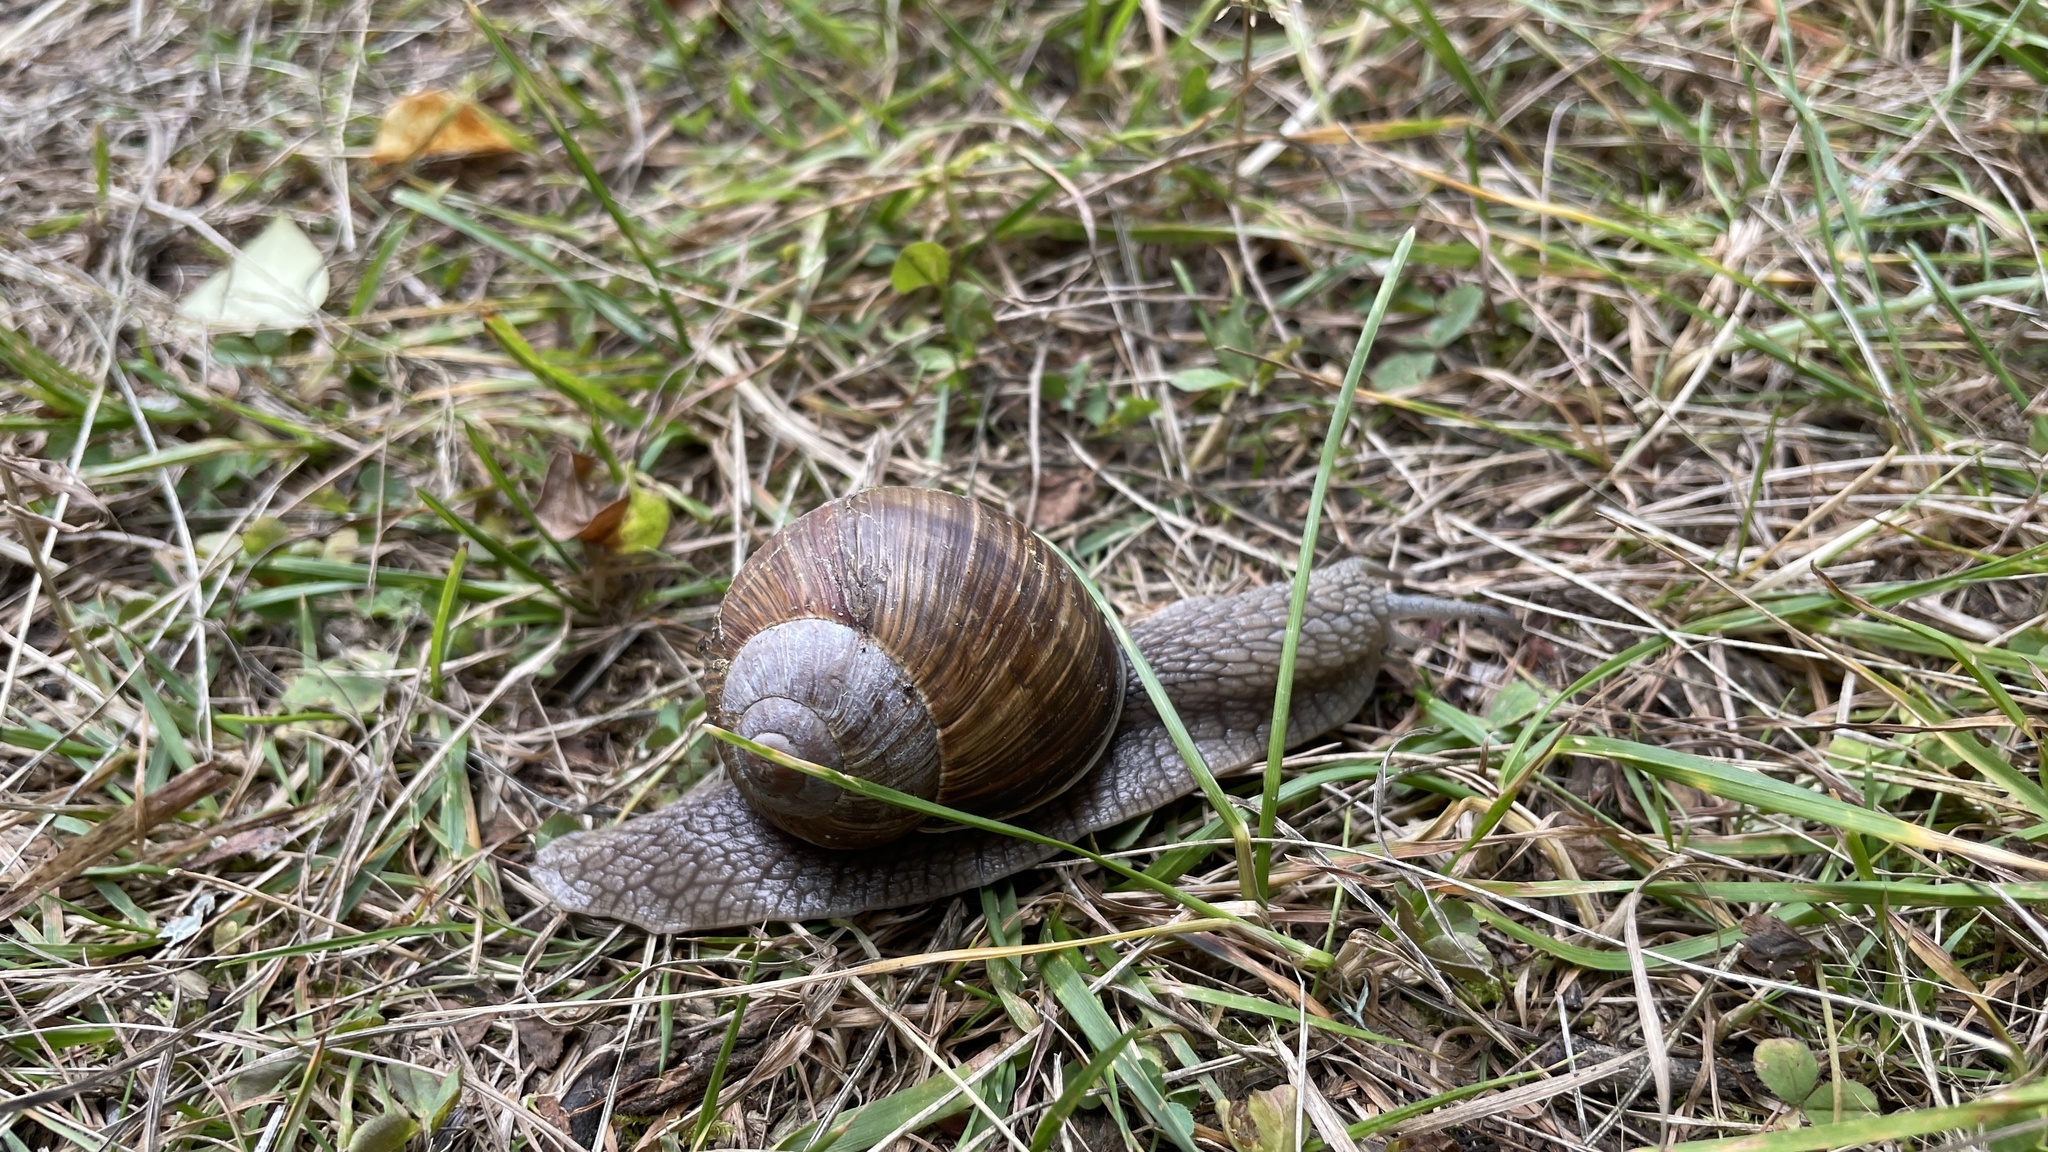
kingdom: Animalia
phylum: Mollusca
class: Gastropoda
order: Stylommatophora
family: Helicidae
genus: Helix
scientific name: Helix pomatia
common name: Roman snail
